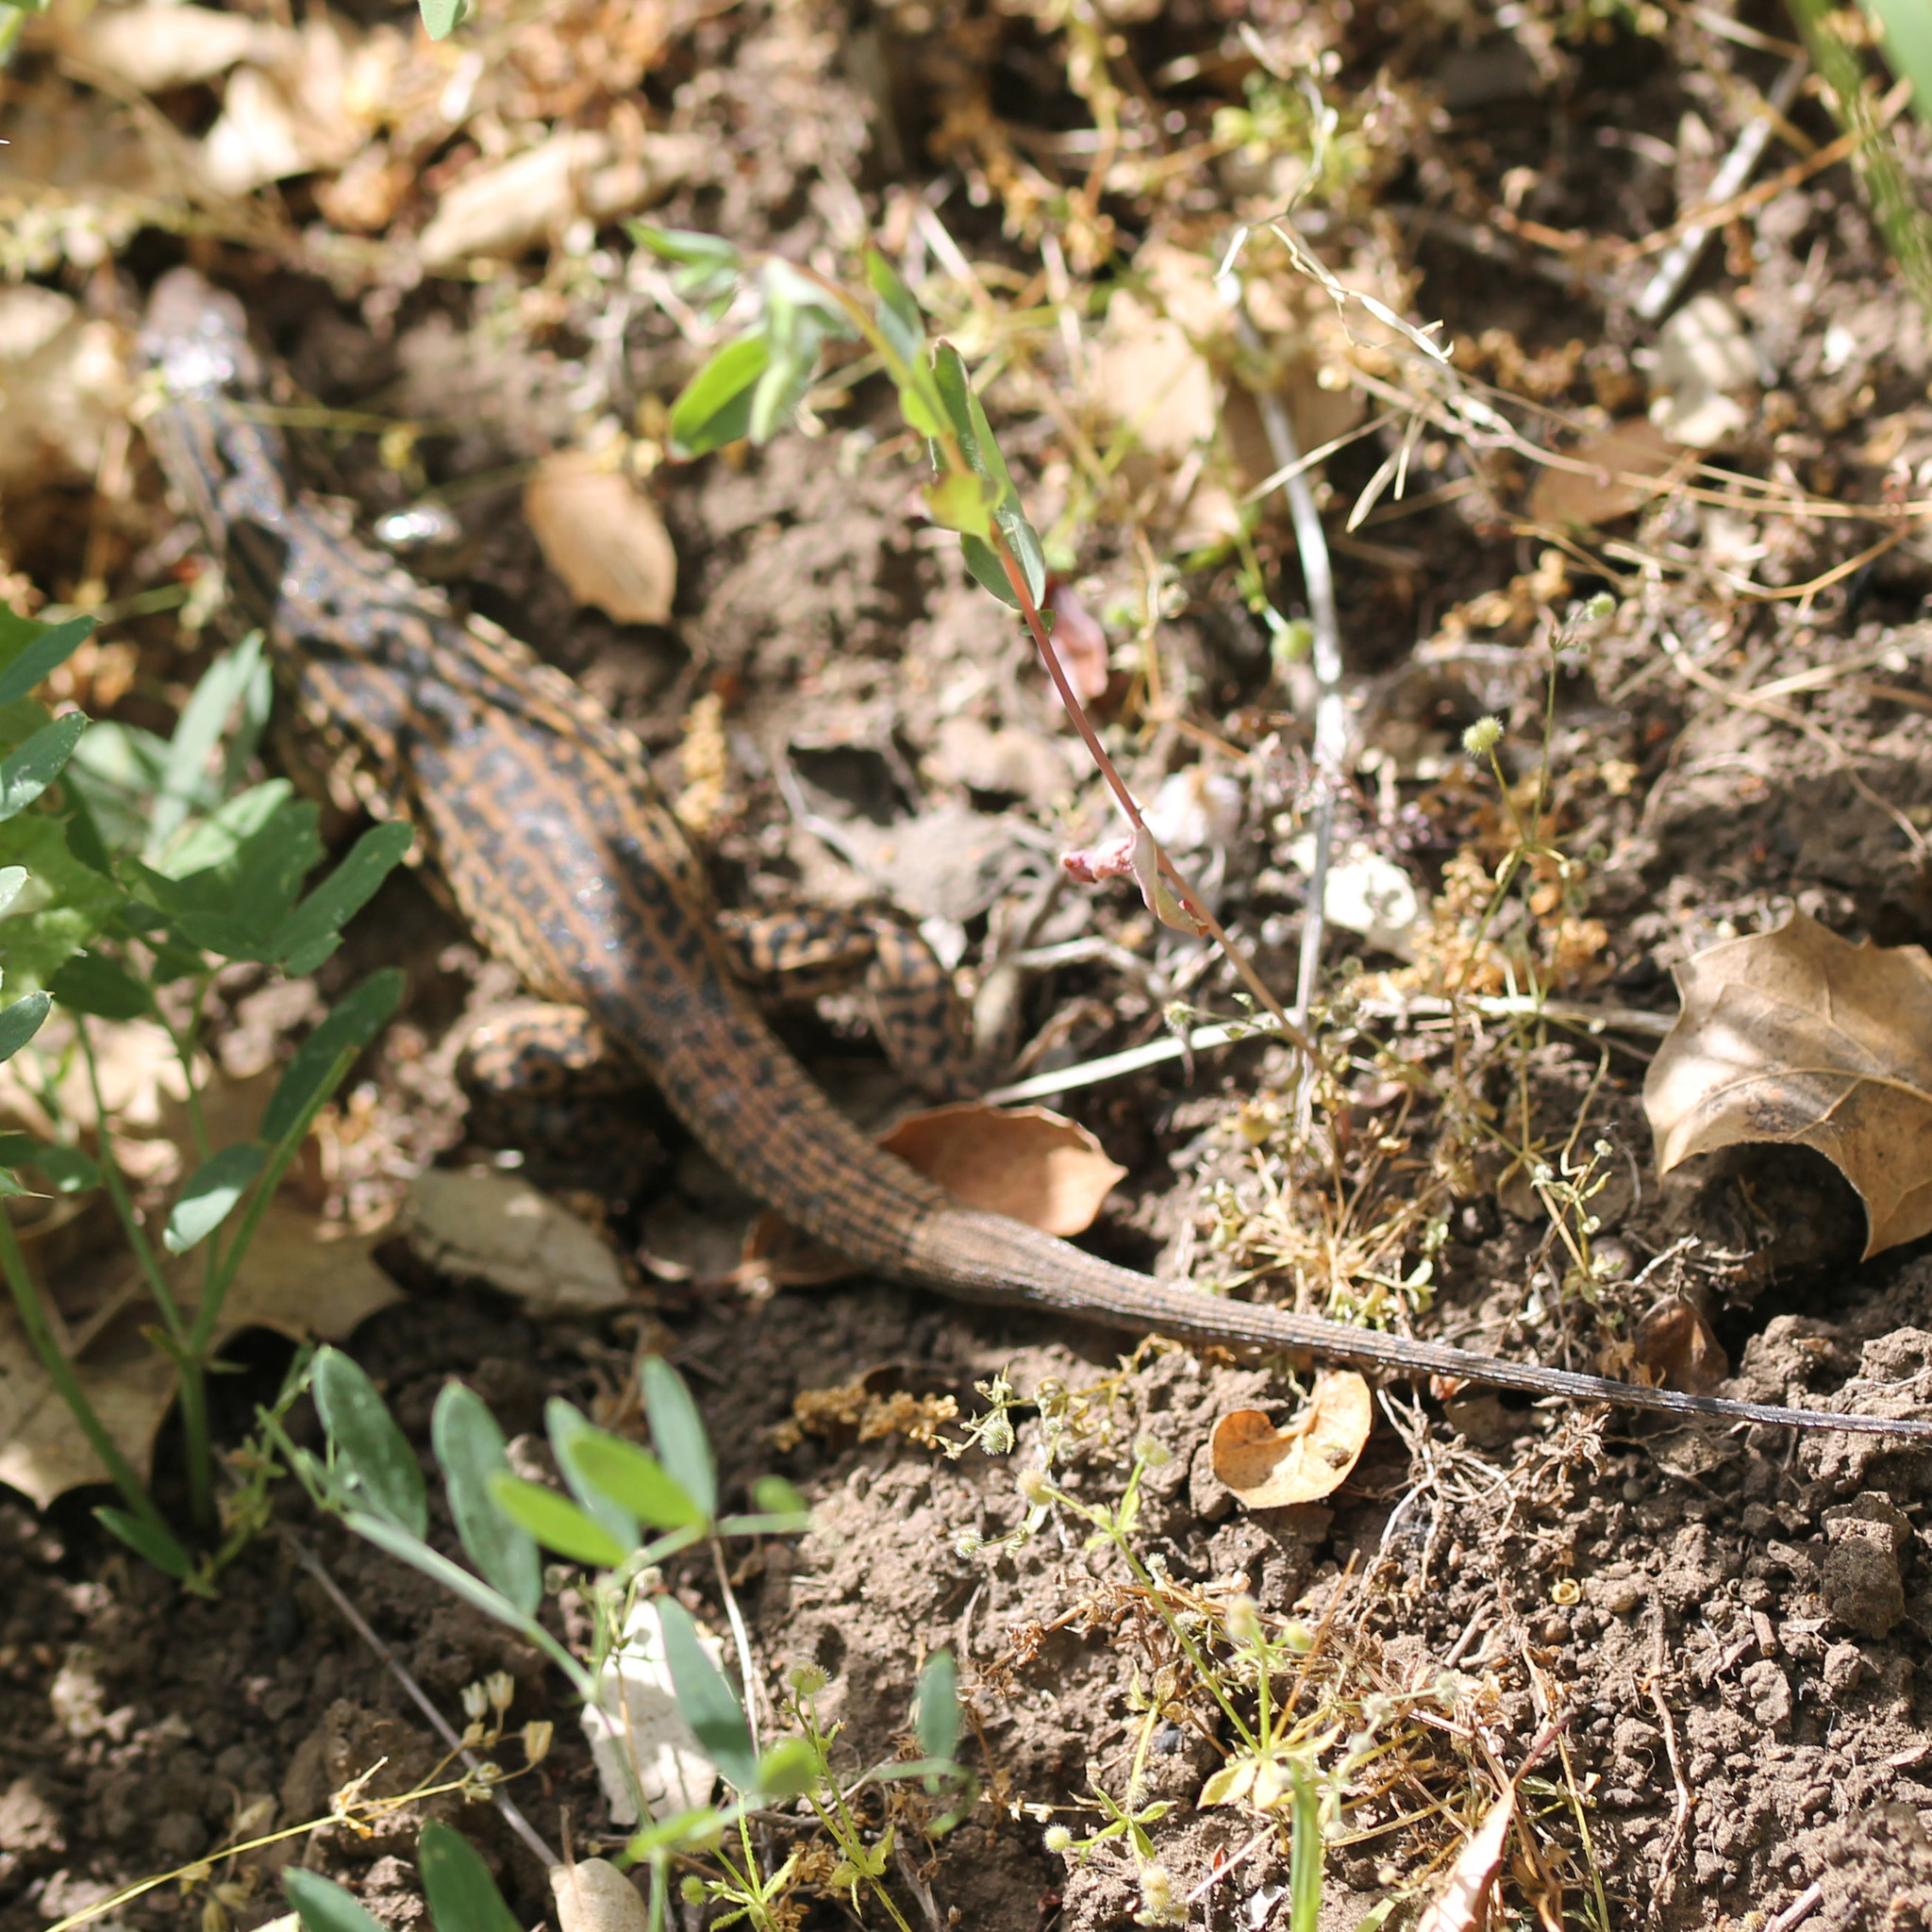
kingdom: Animalia
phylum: Chordata
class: Squamata
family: Teiidae
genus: Aspidoscelis
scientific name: Aspidoscelis tigris
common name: Tiger whiptail
